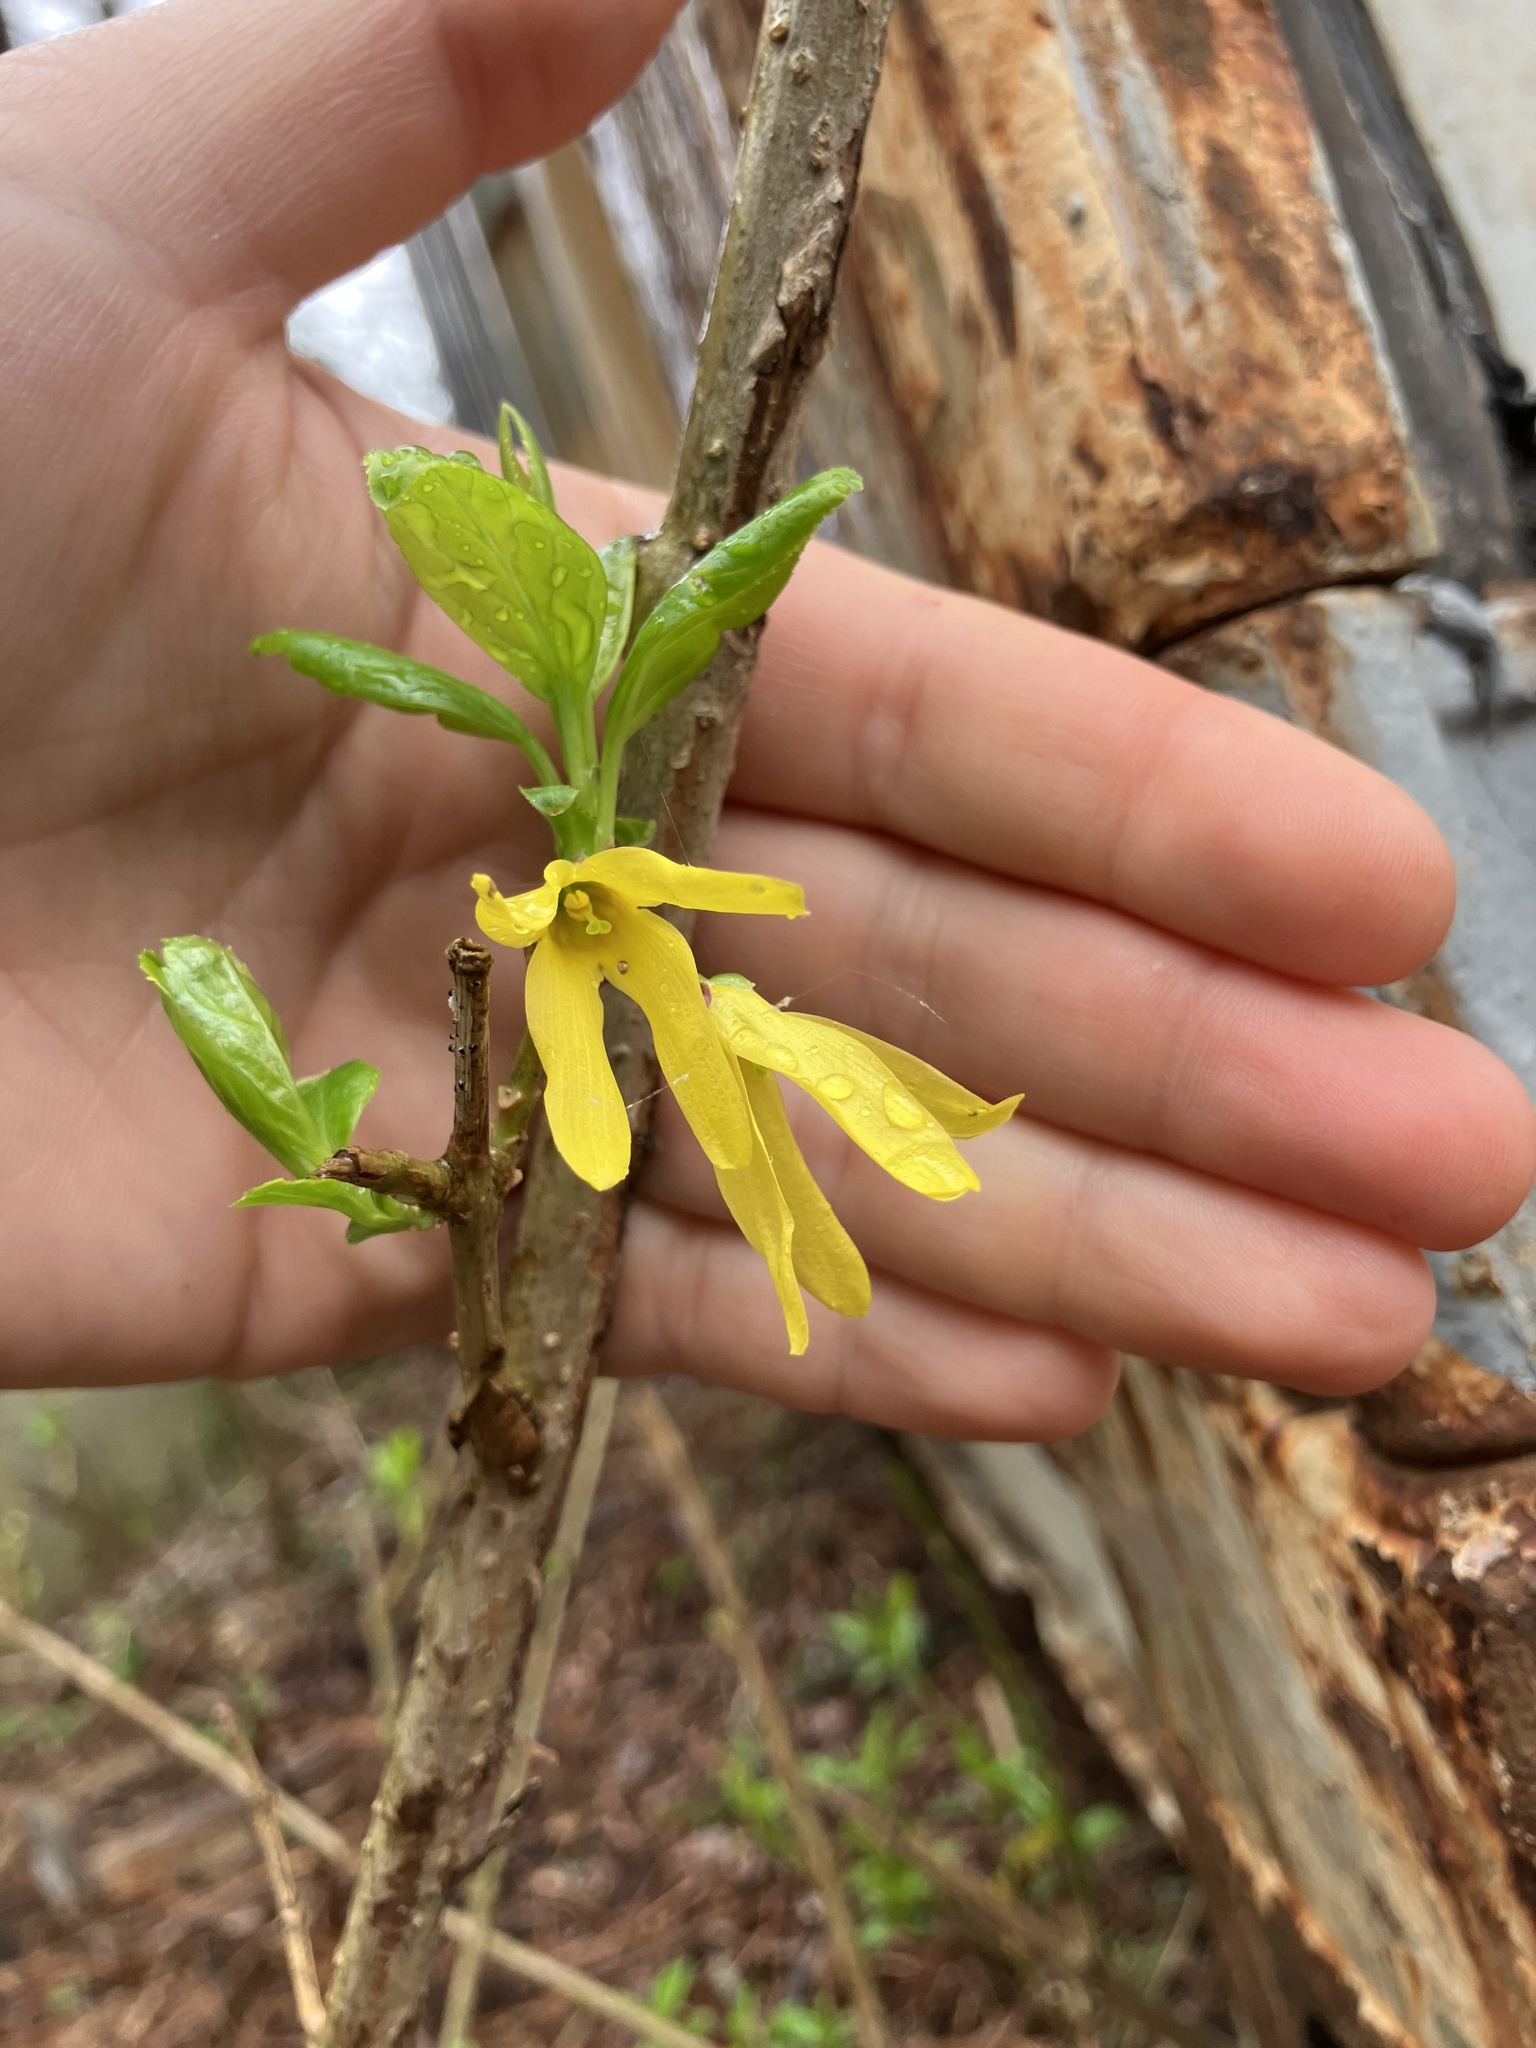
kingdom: Plantae
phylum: Tracheophyta
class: Magnoliopsida
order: Lamiales
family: Oleaceae
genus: Forsythia
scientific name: Forsythia viridissima
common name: Greenstem forsythia
